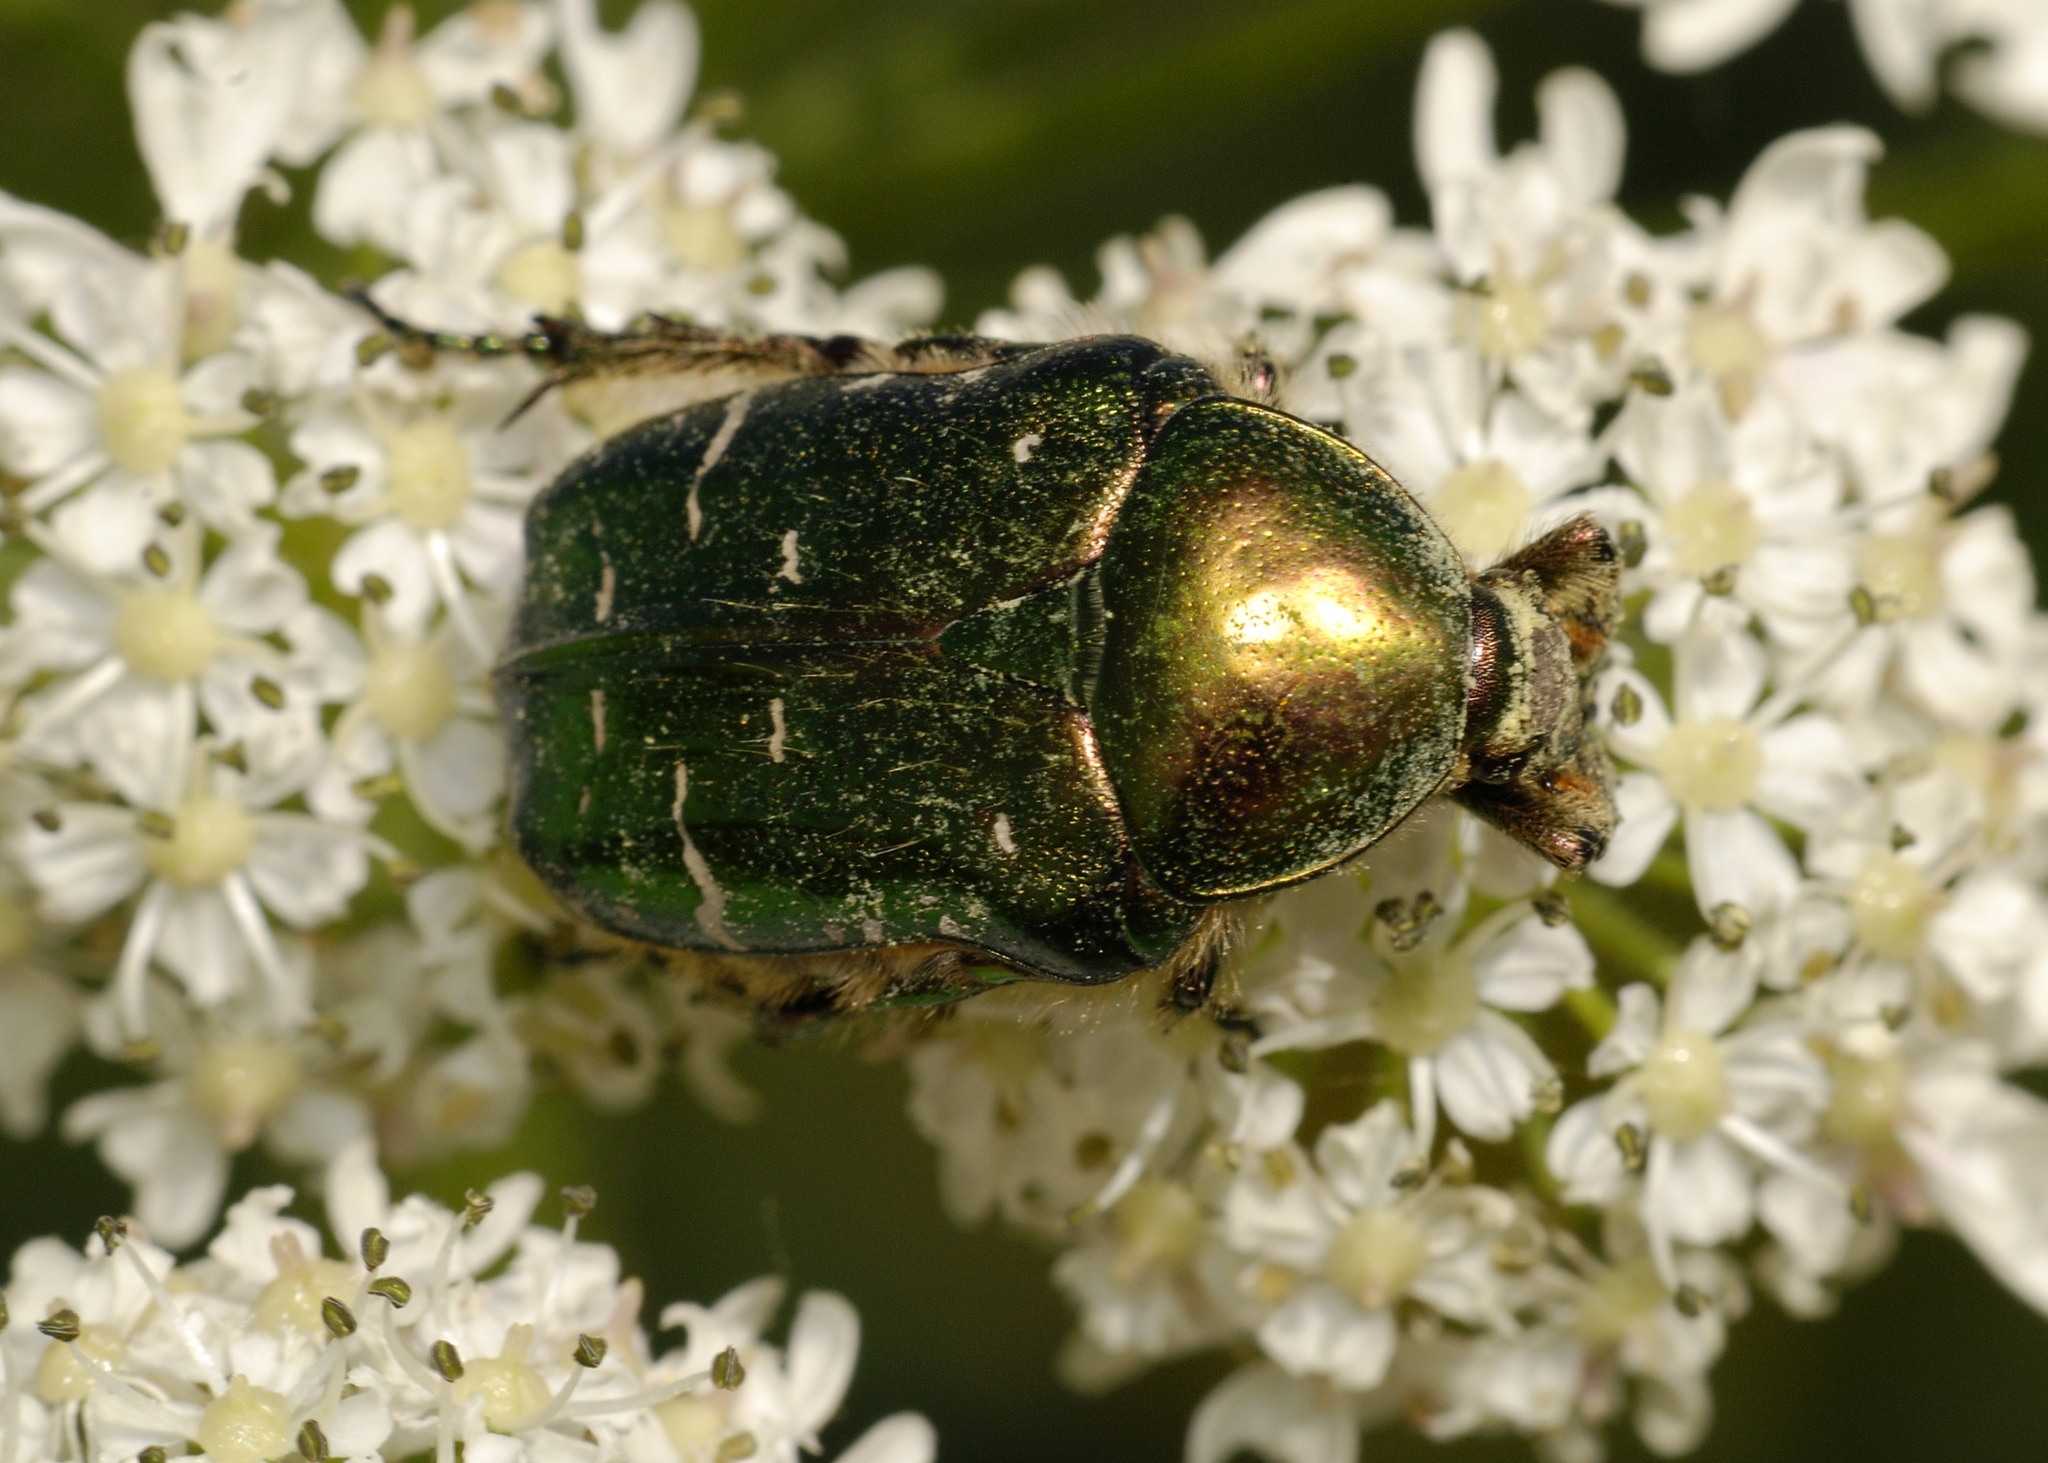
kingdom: Animalia
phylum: Arthropoda
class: Insecta
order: Coleoptera
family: Scarabaeidae
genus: Cetonia
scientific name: Cetonia aurata
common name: Rose chafer
